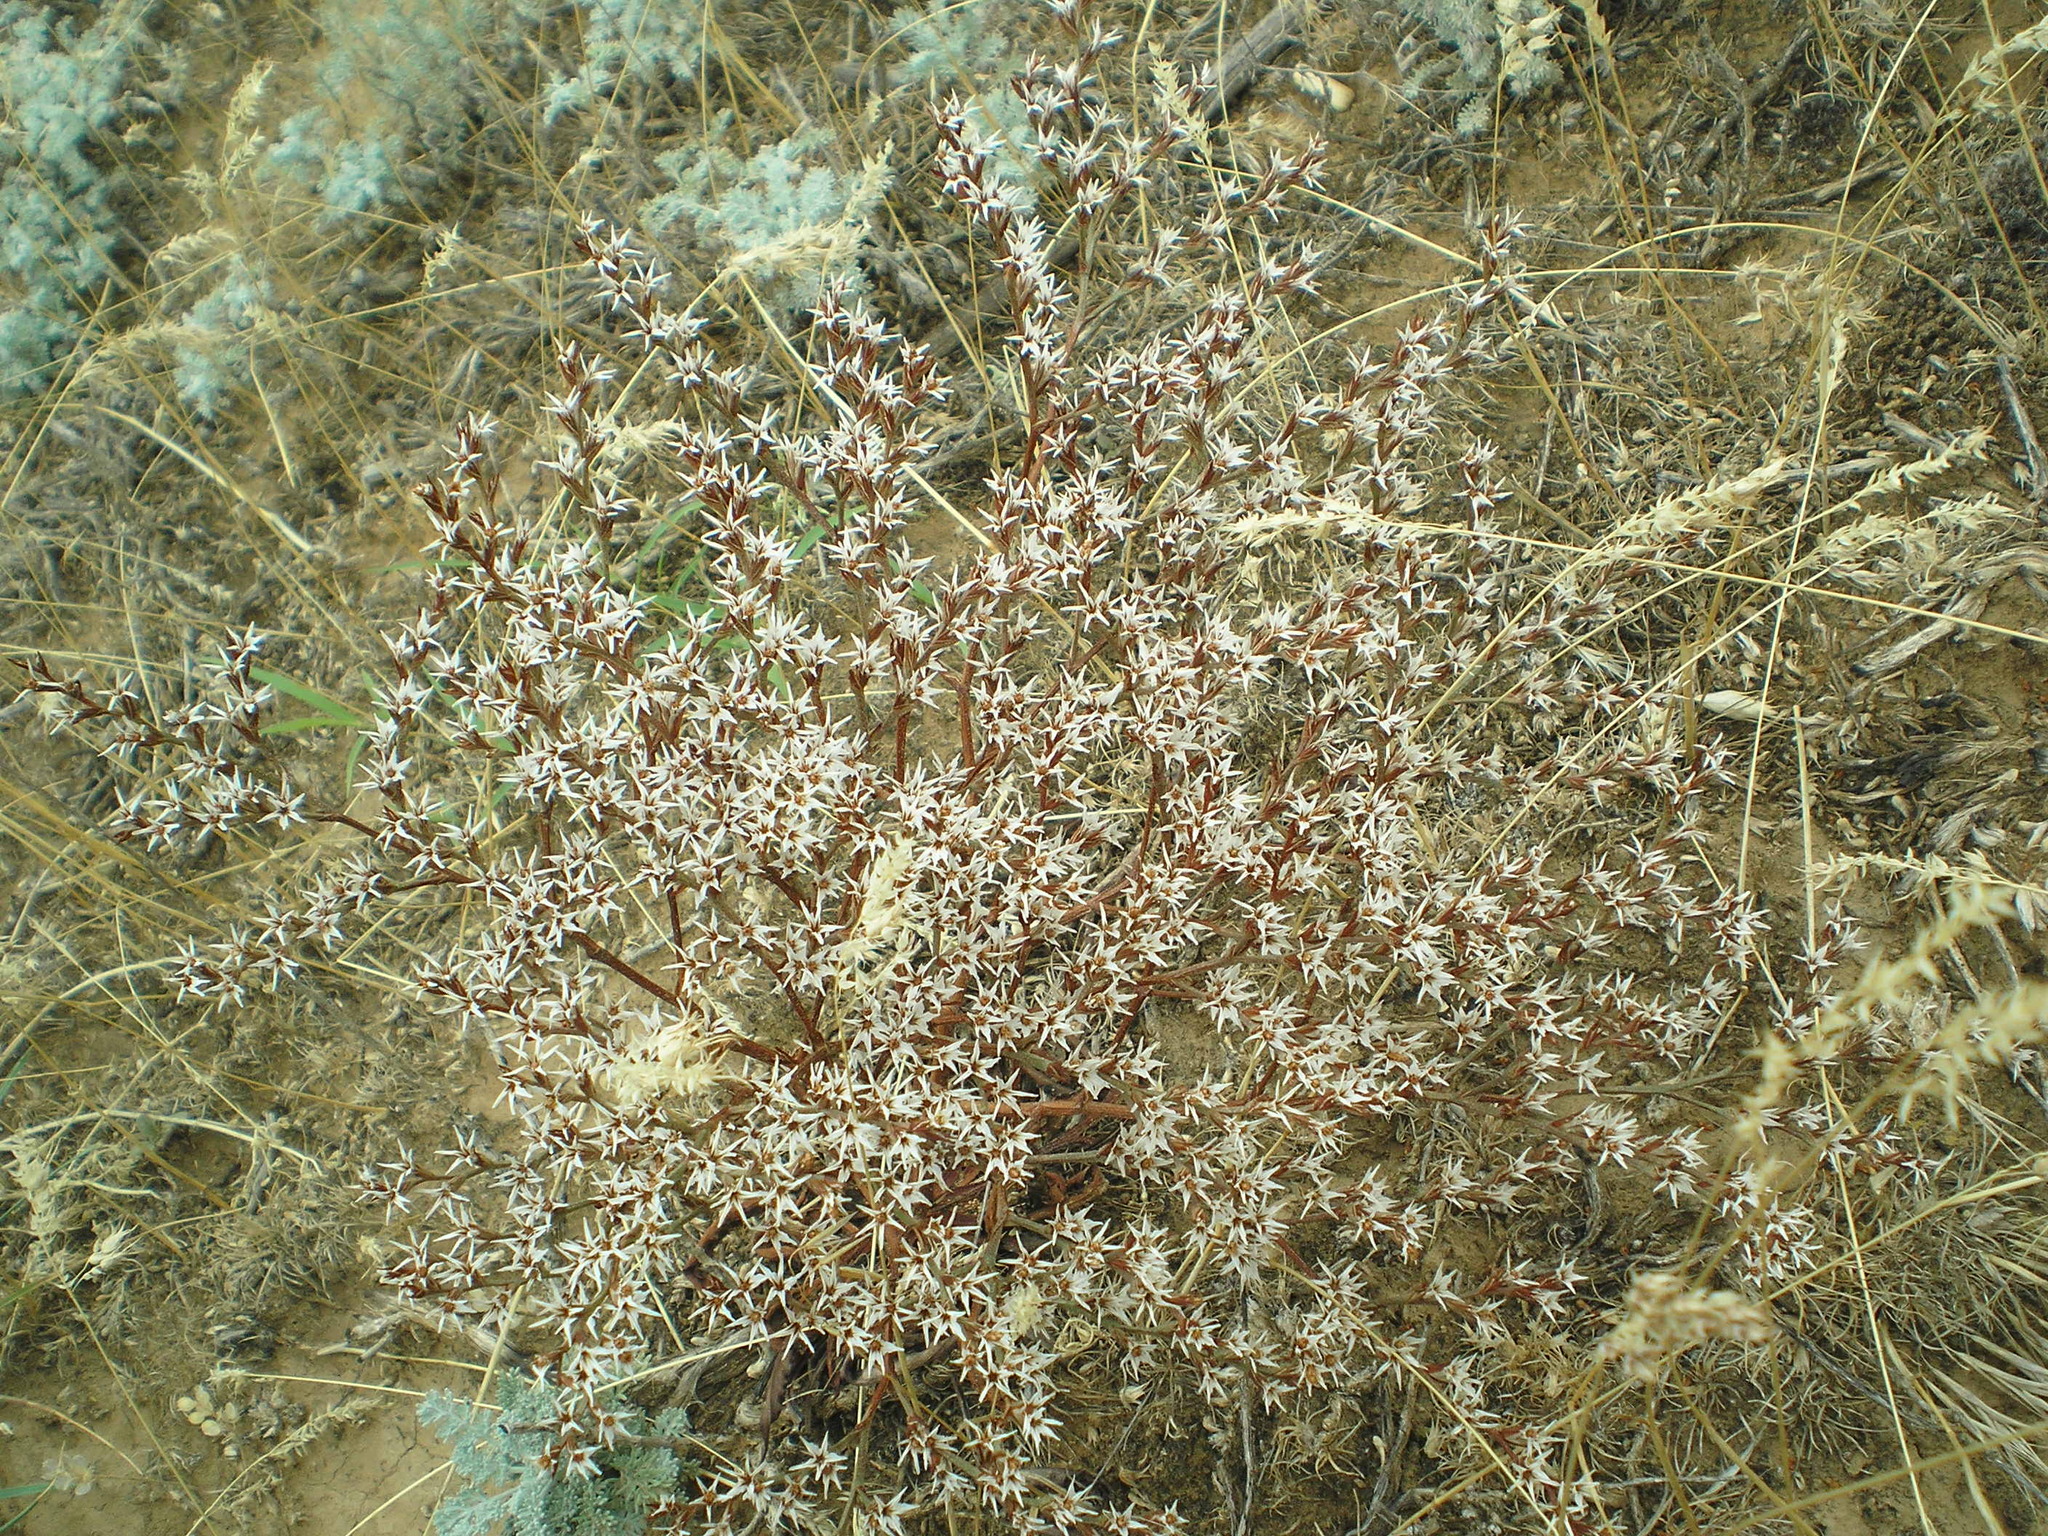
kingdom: Plantae
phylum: Tracheophyta
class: Magnoliopsida
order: Caryophyllales
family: Plumbaginaceae
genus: Goniolimon
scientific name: Goniolimon tataricum
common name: Statice
